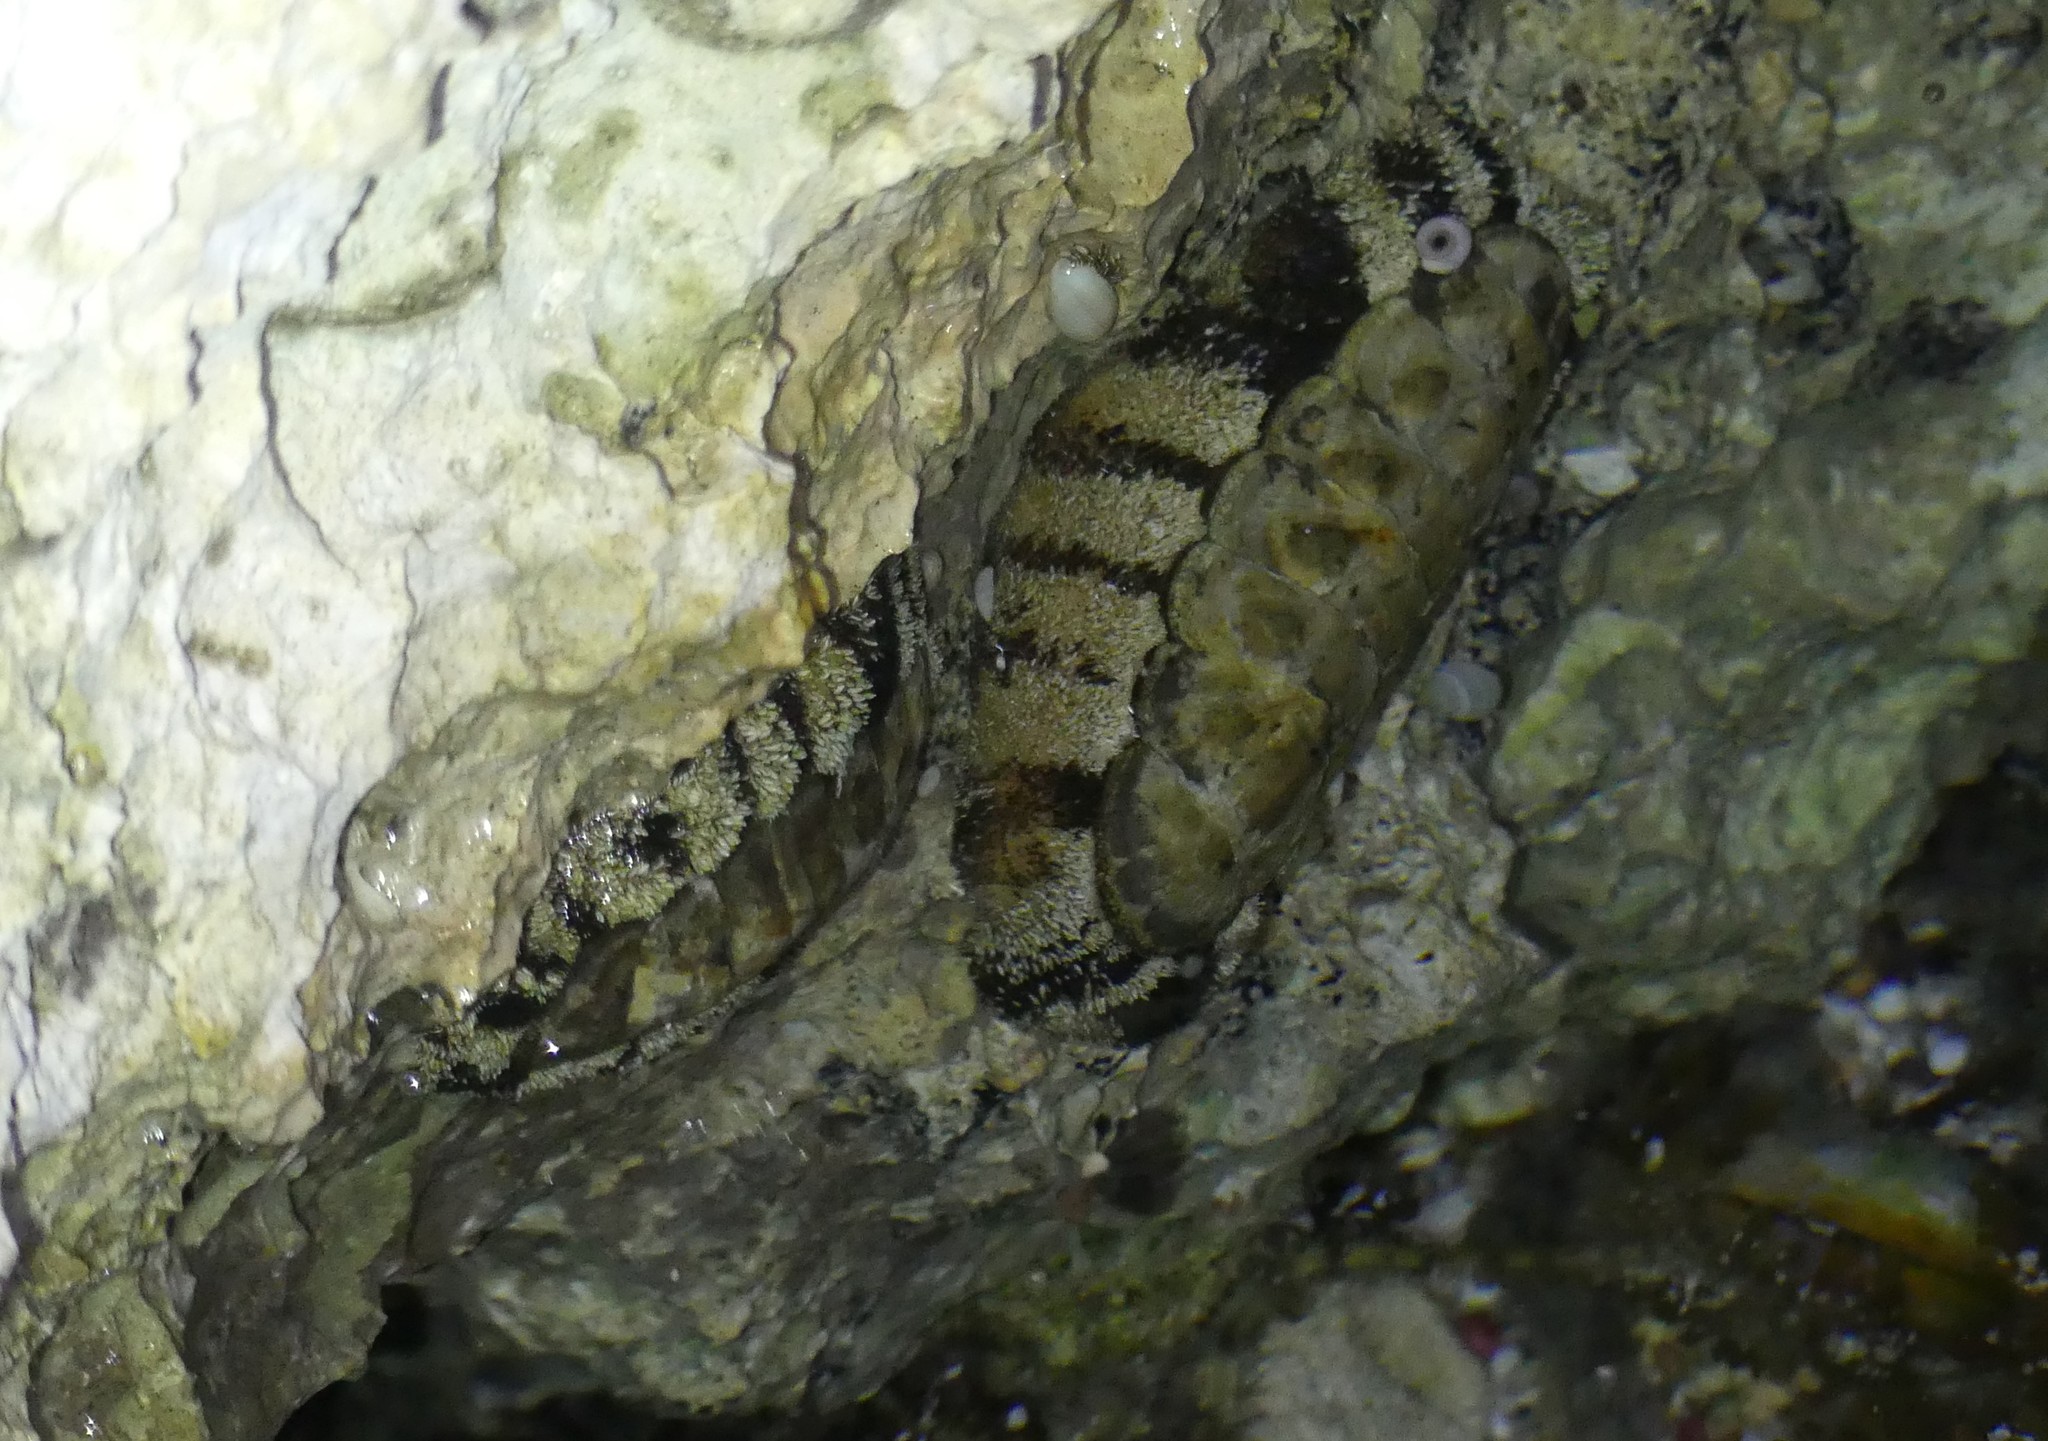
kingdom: Animalia
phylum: Mollusca
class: Polyplacophora
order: Chitonida
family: Chitonidae
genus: Acanthopleura
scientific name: Acanthopleura vaillantii
